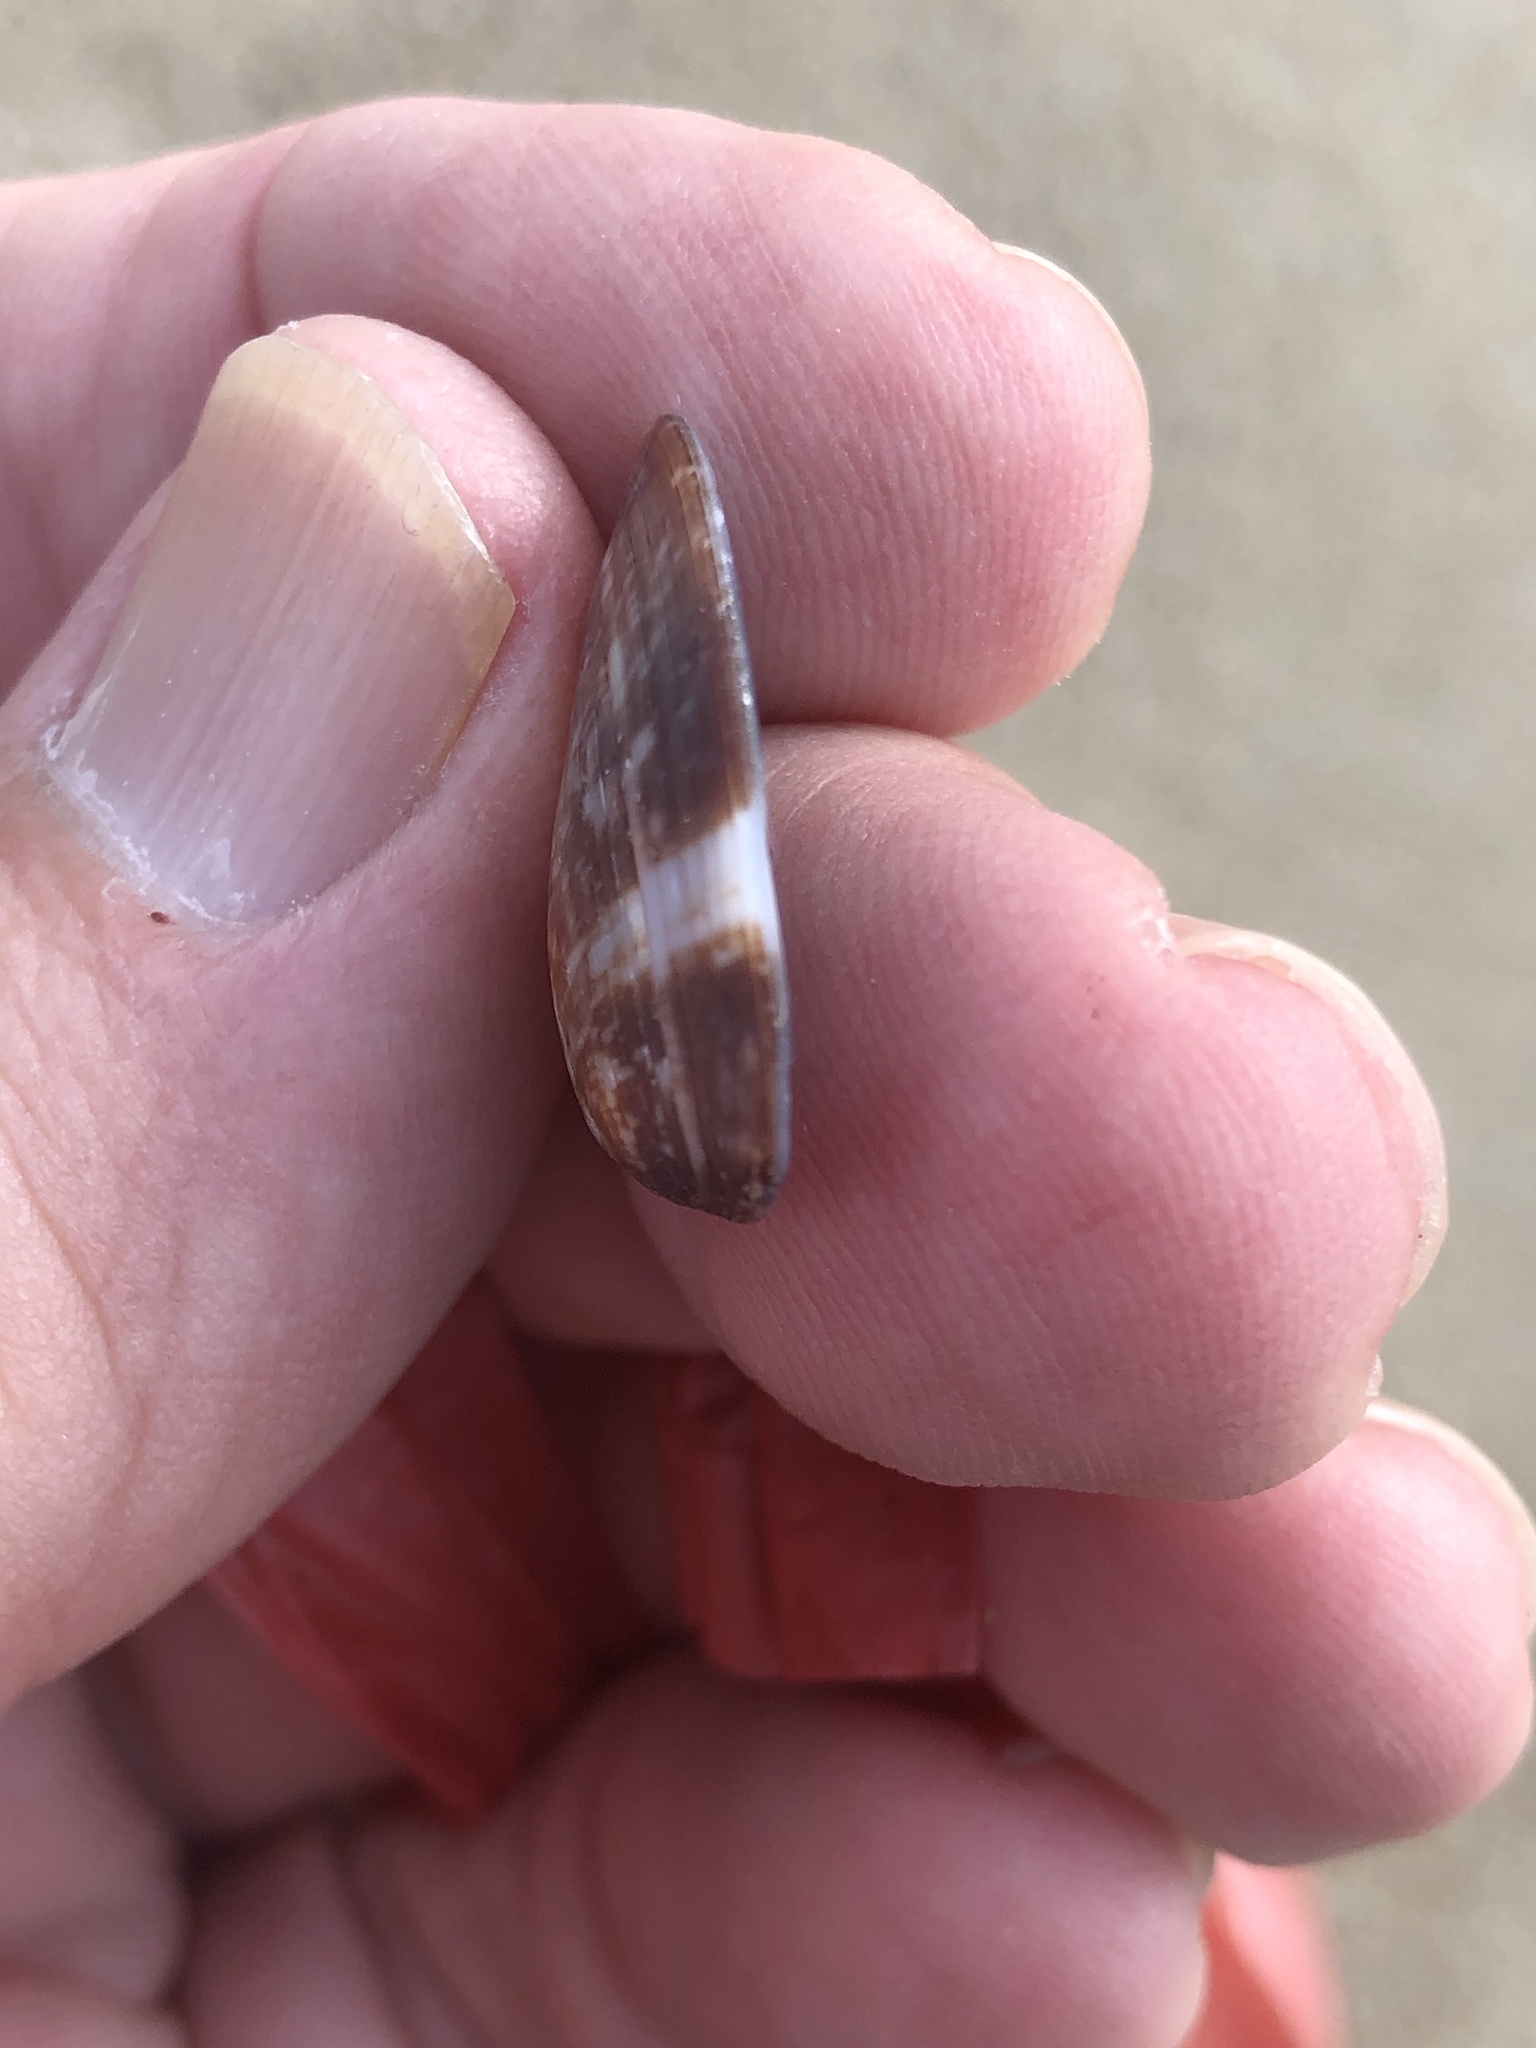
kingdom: Animalia
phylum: Mollusca
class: Bivalvia
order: Cardiida
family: Donacidae
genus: Donax
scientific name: Donax faba
